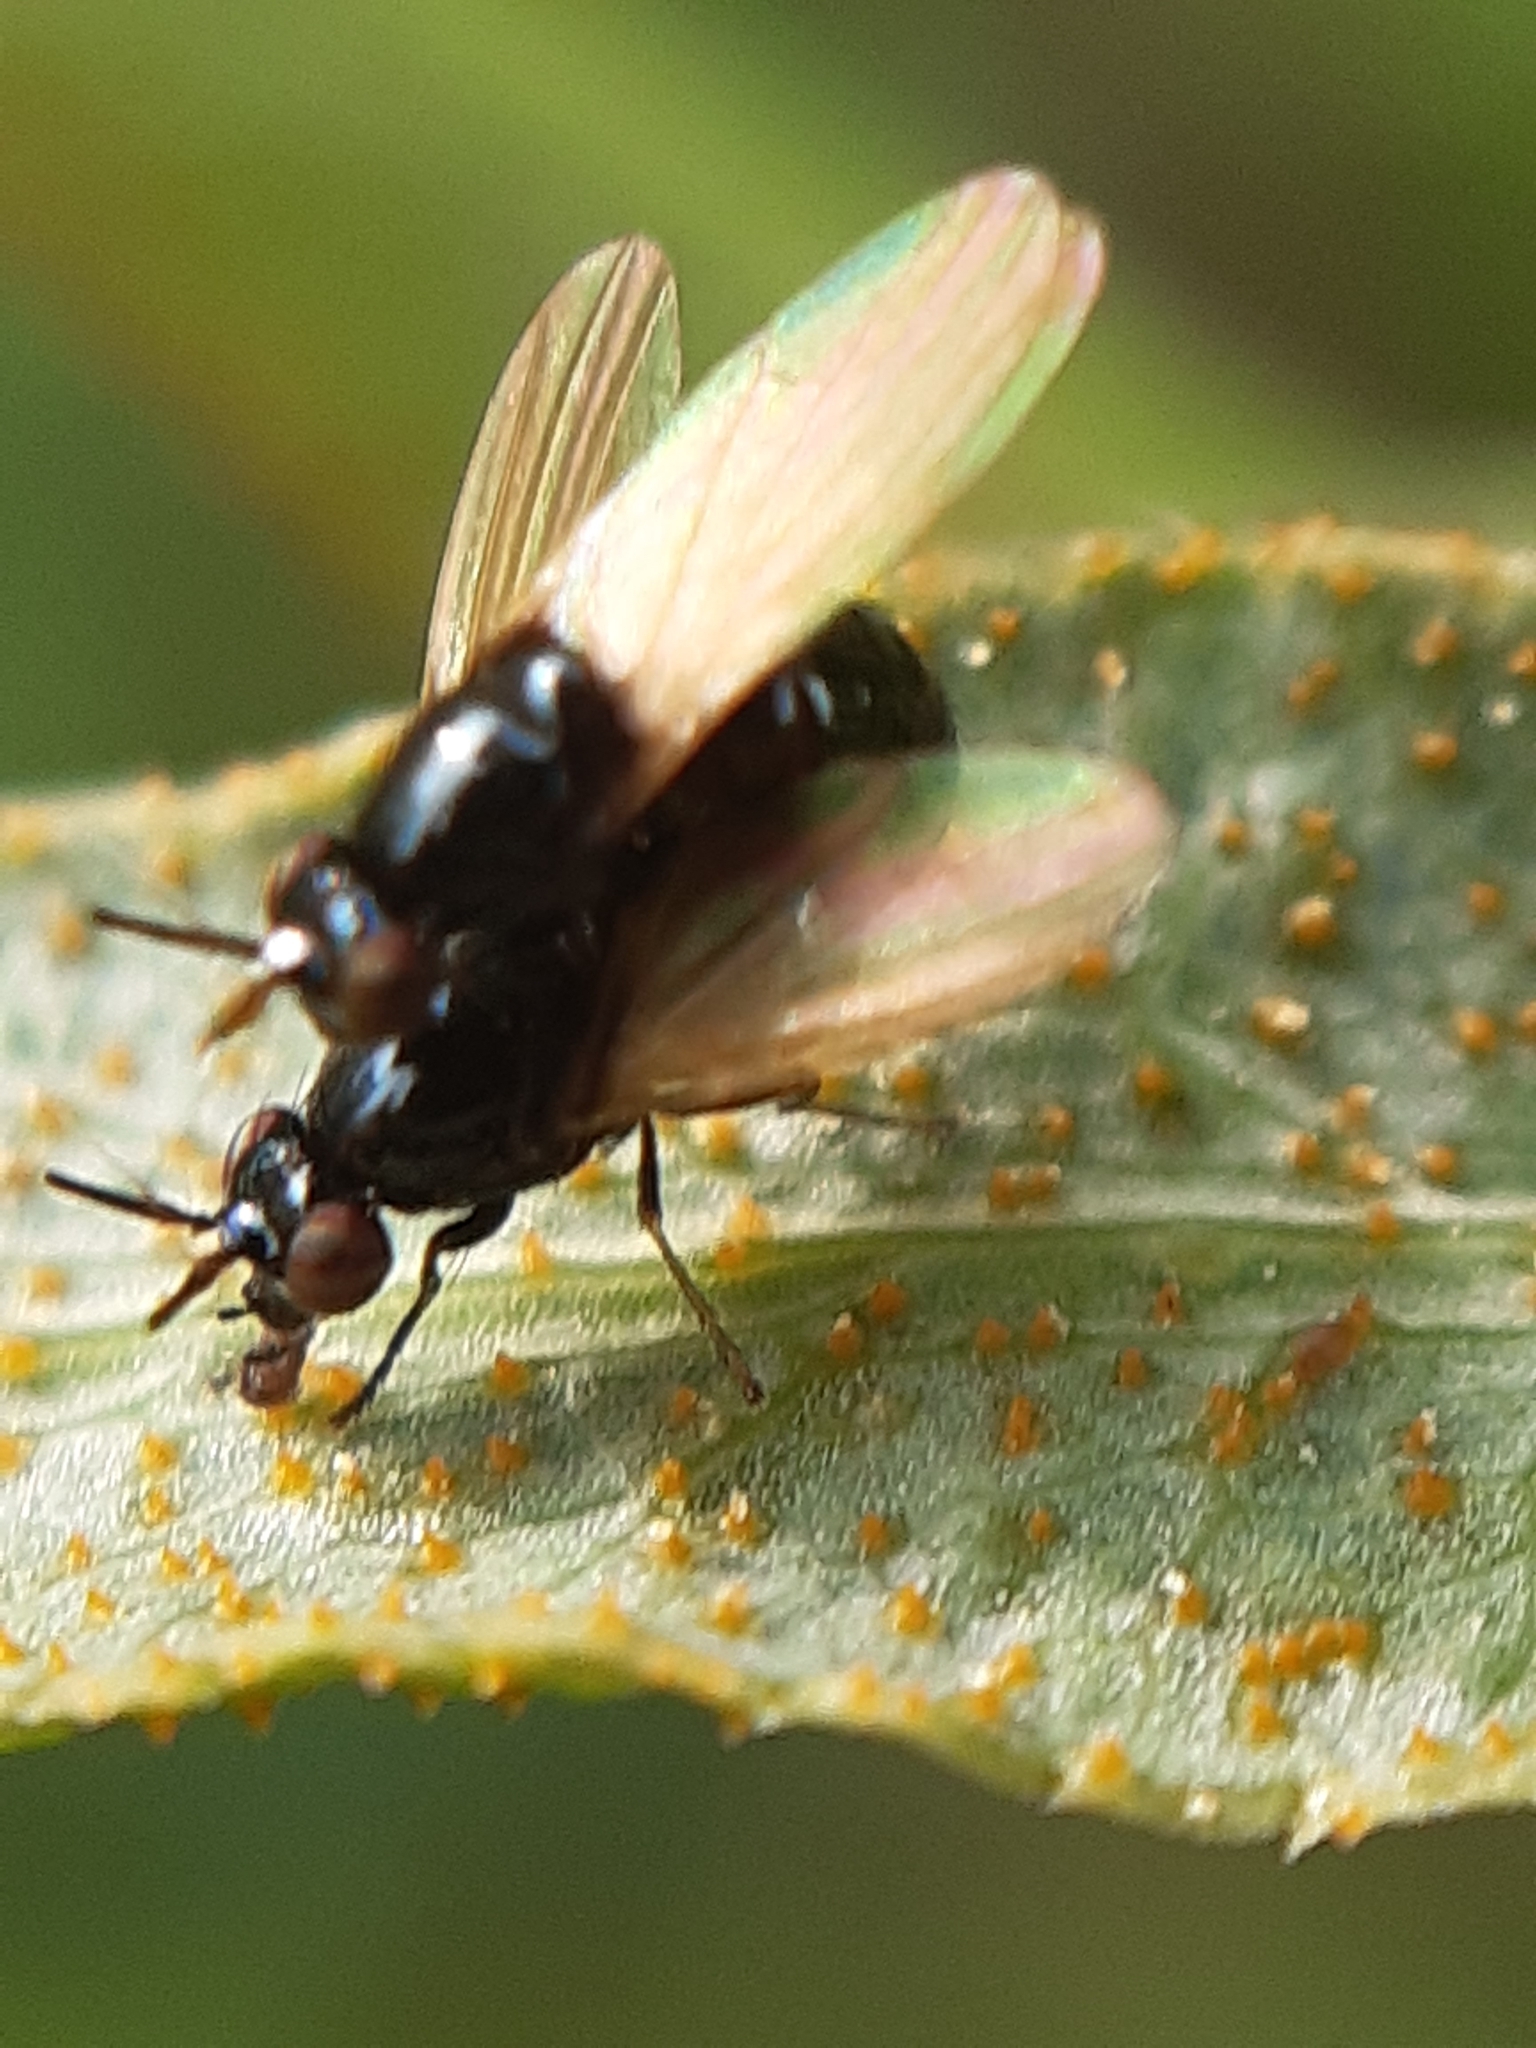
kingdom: Fungi
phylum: Basidiomycota
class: Pucciniomycetes
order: Pucciniales
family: Pucciniaceae
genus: Puccinia
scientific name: Puccinia sii-falcariae
